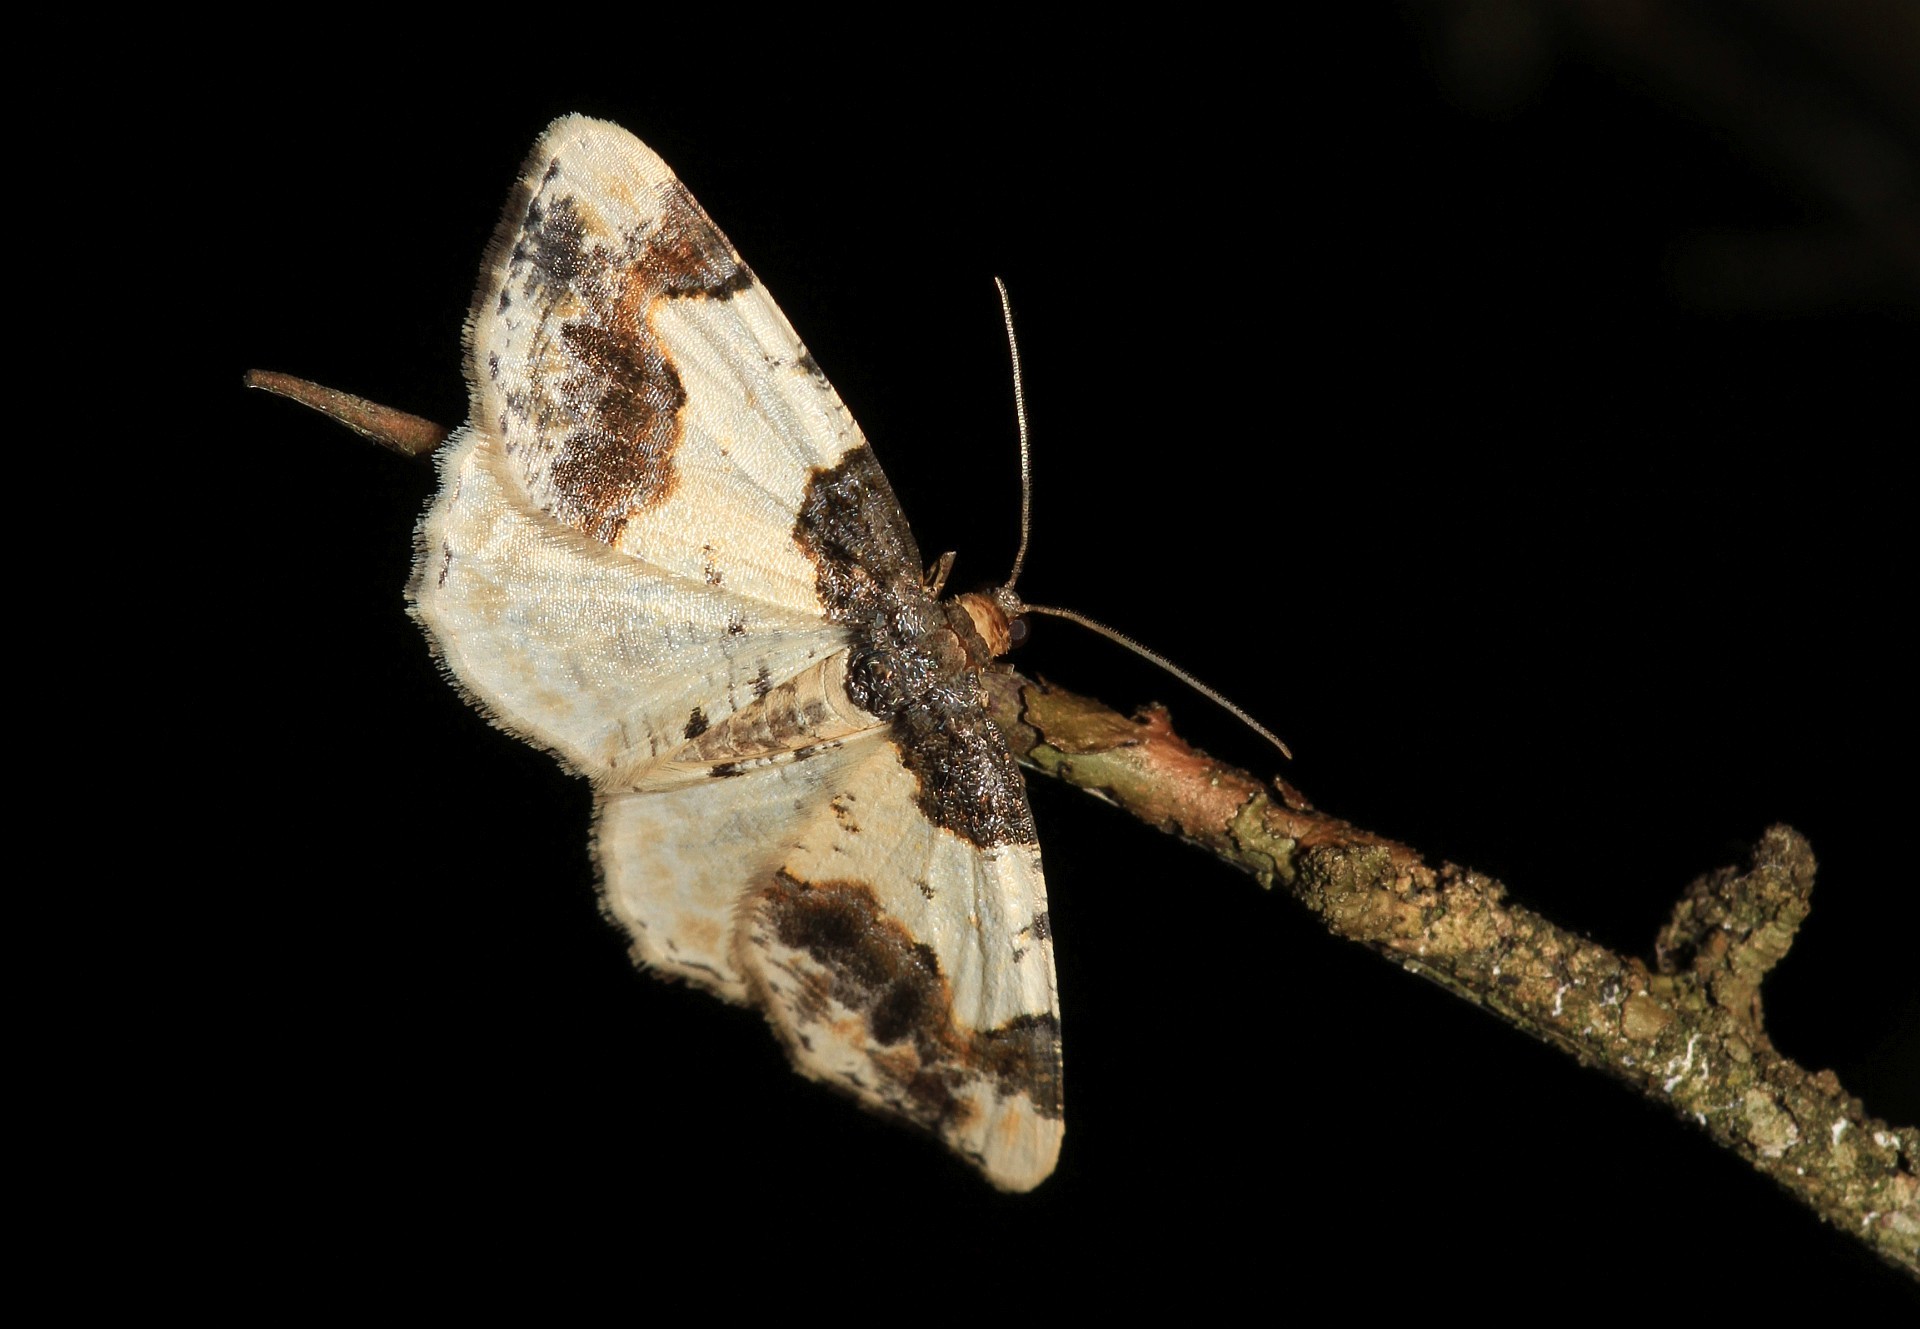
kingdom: Animalia
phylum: Arthropoda
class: Insecta
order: Lepidoptera
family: Geometridae
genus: Ligdia
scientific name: Ligdia adustata
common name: Scorched carpet
